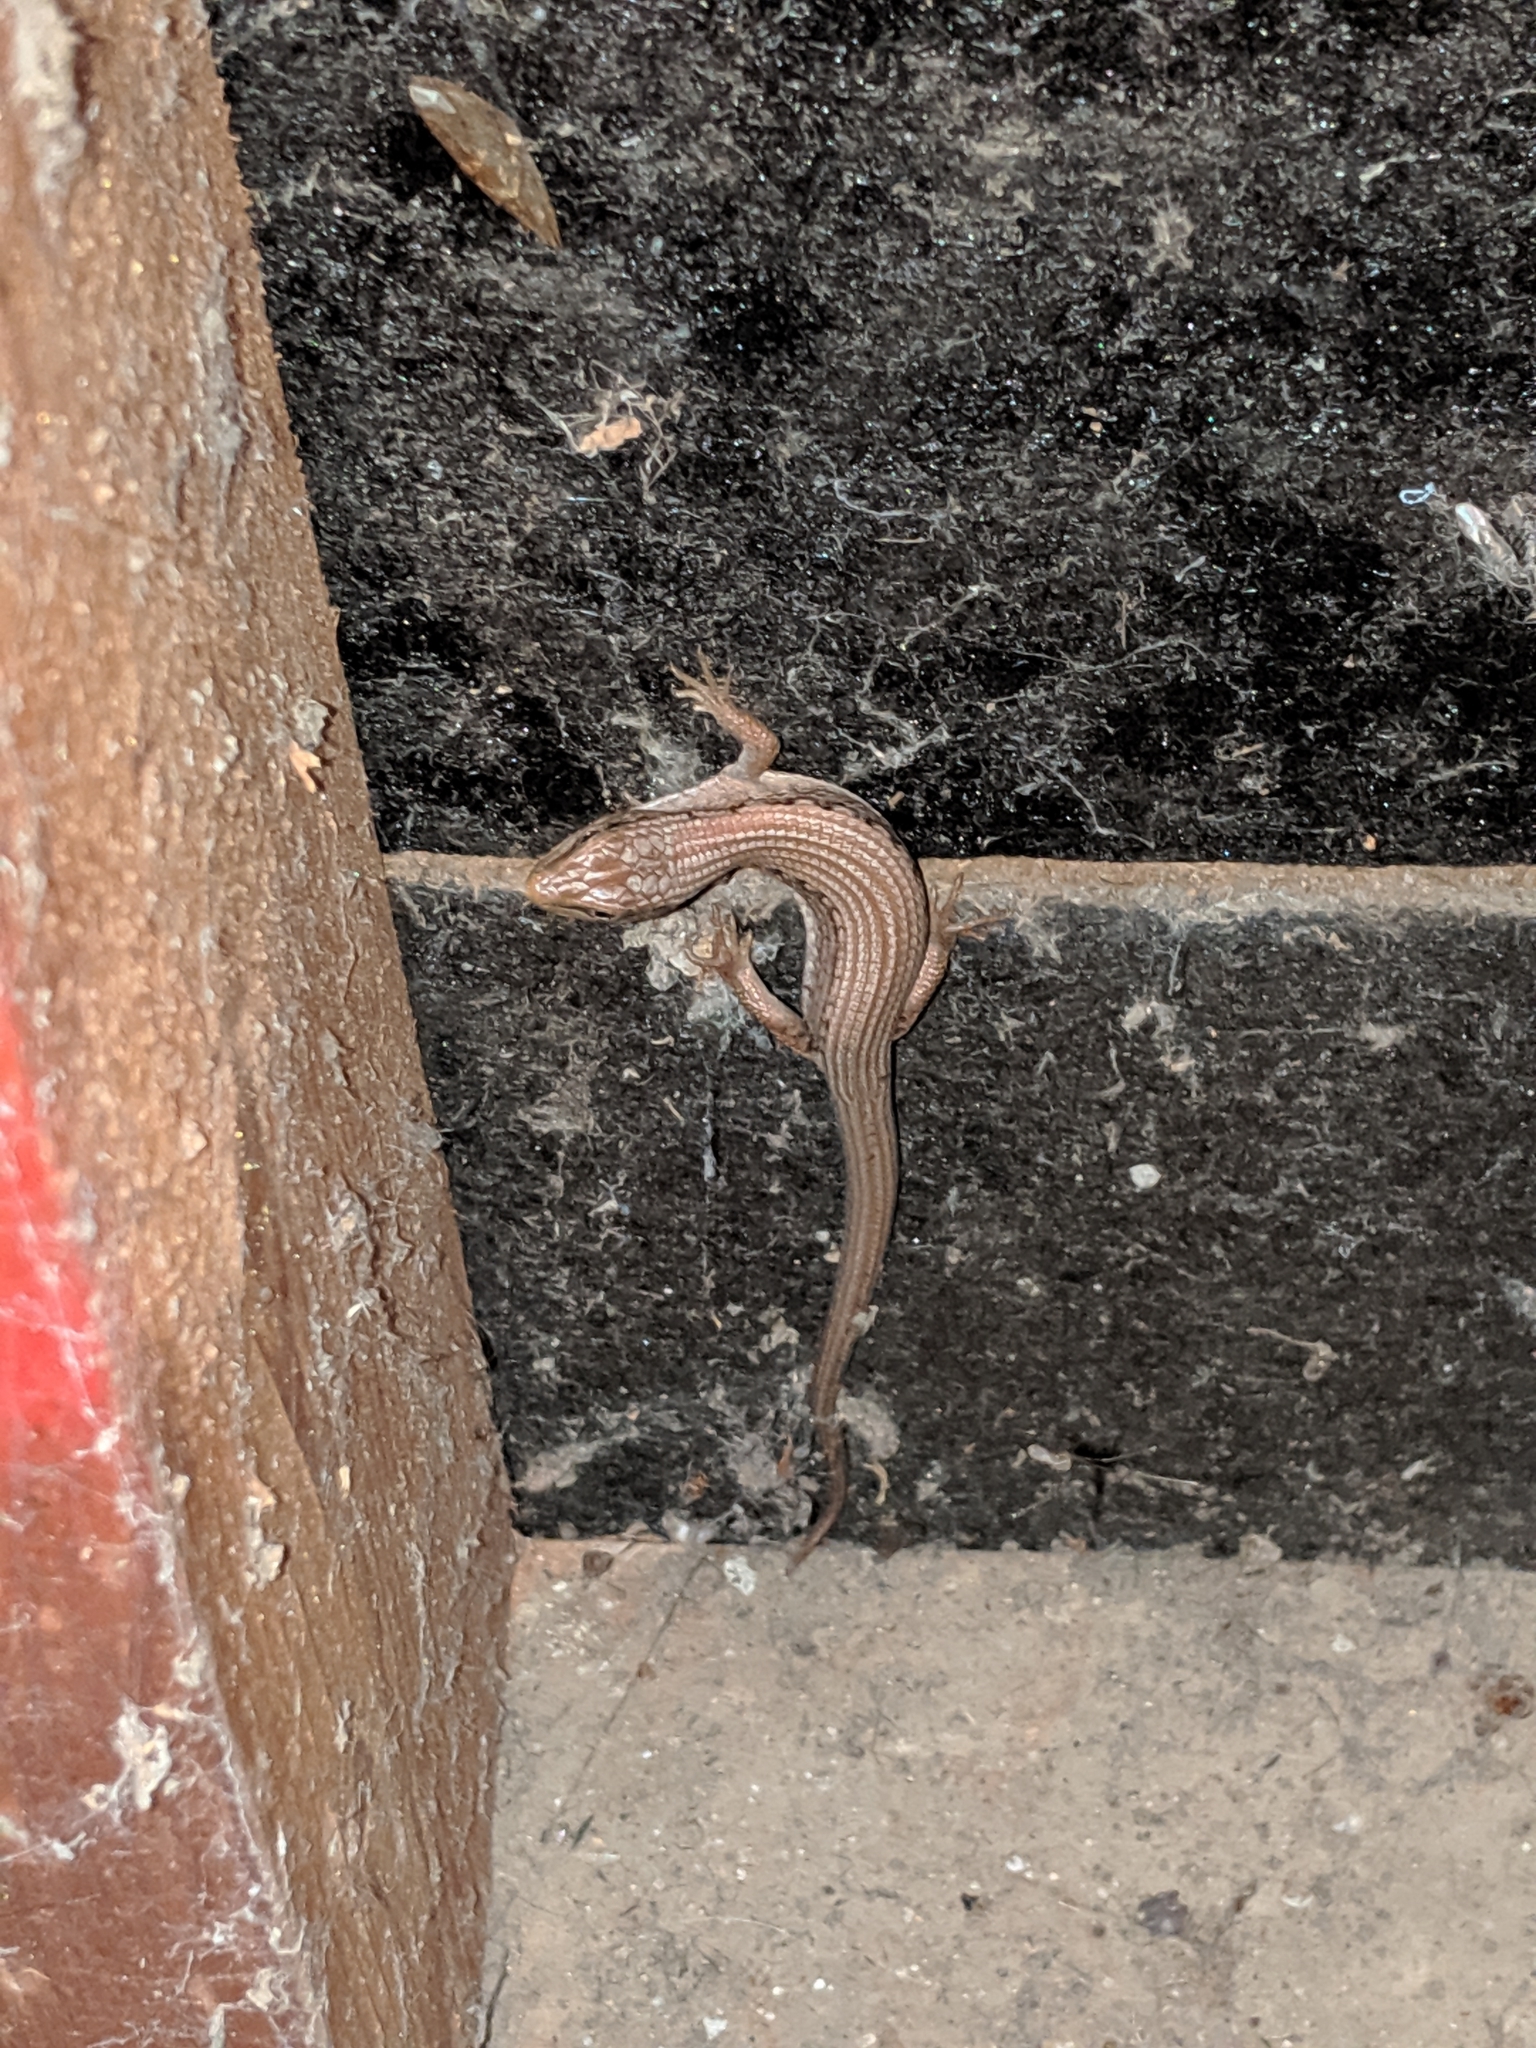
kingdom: Animalia
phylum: Chordata
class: Squamata
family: Anguidae
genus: Elgaria
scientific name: Elgaria coerulea
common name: Northern alligator lizard
